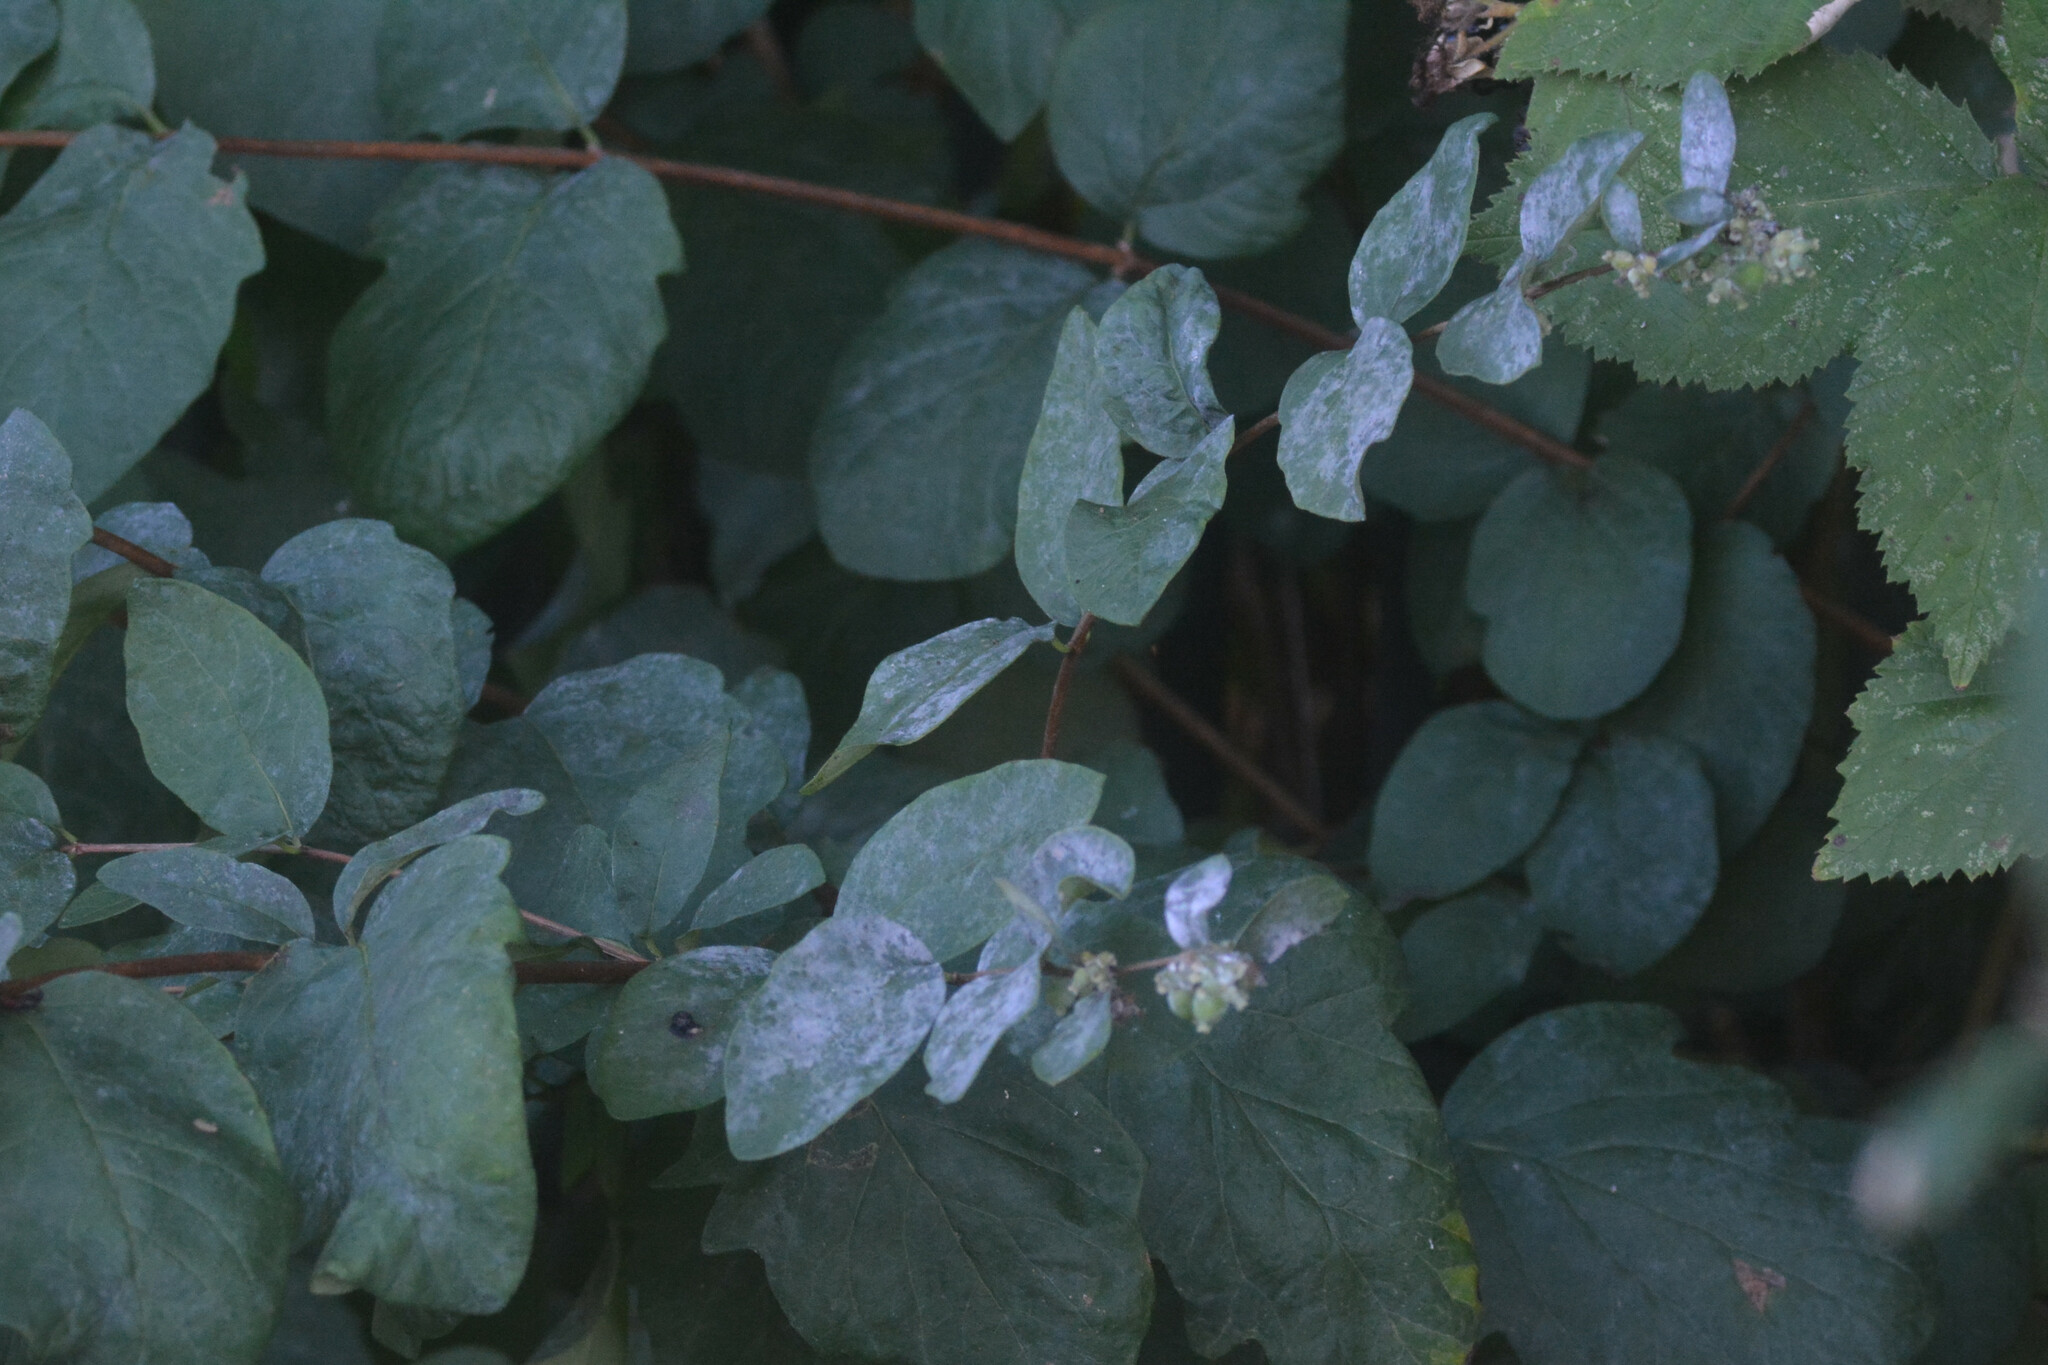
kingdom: Fungi
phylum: Ascomycota
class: Leotiomycetes
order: Helotiales
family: Erysiphaceae
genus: Erysiphe
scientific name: Erysiphe symphoricarpi
